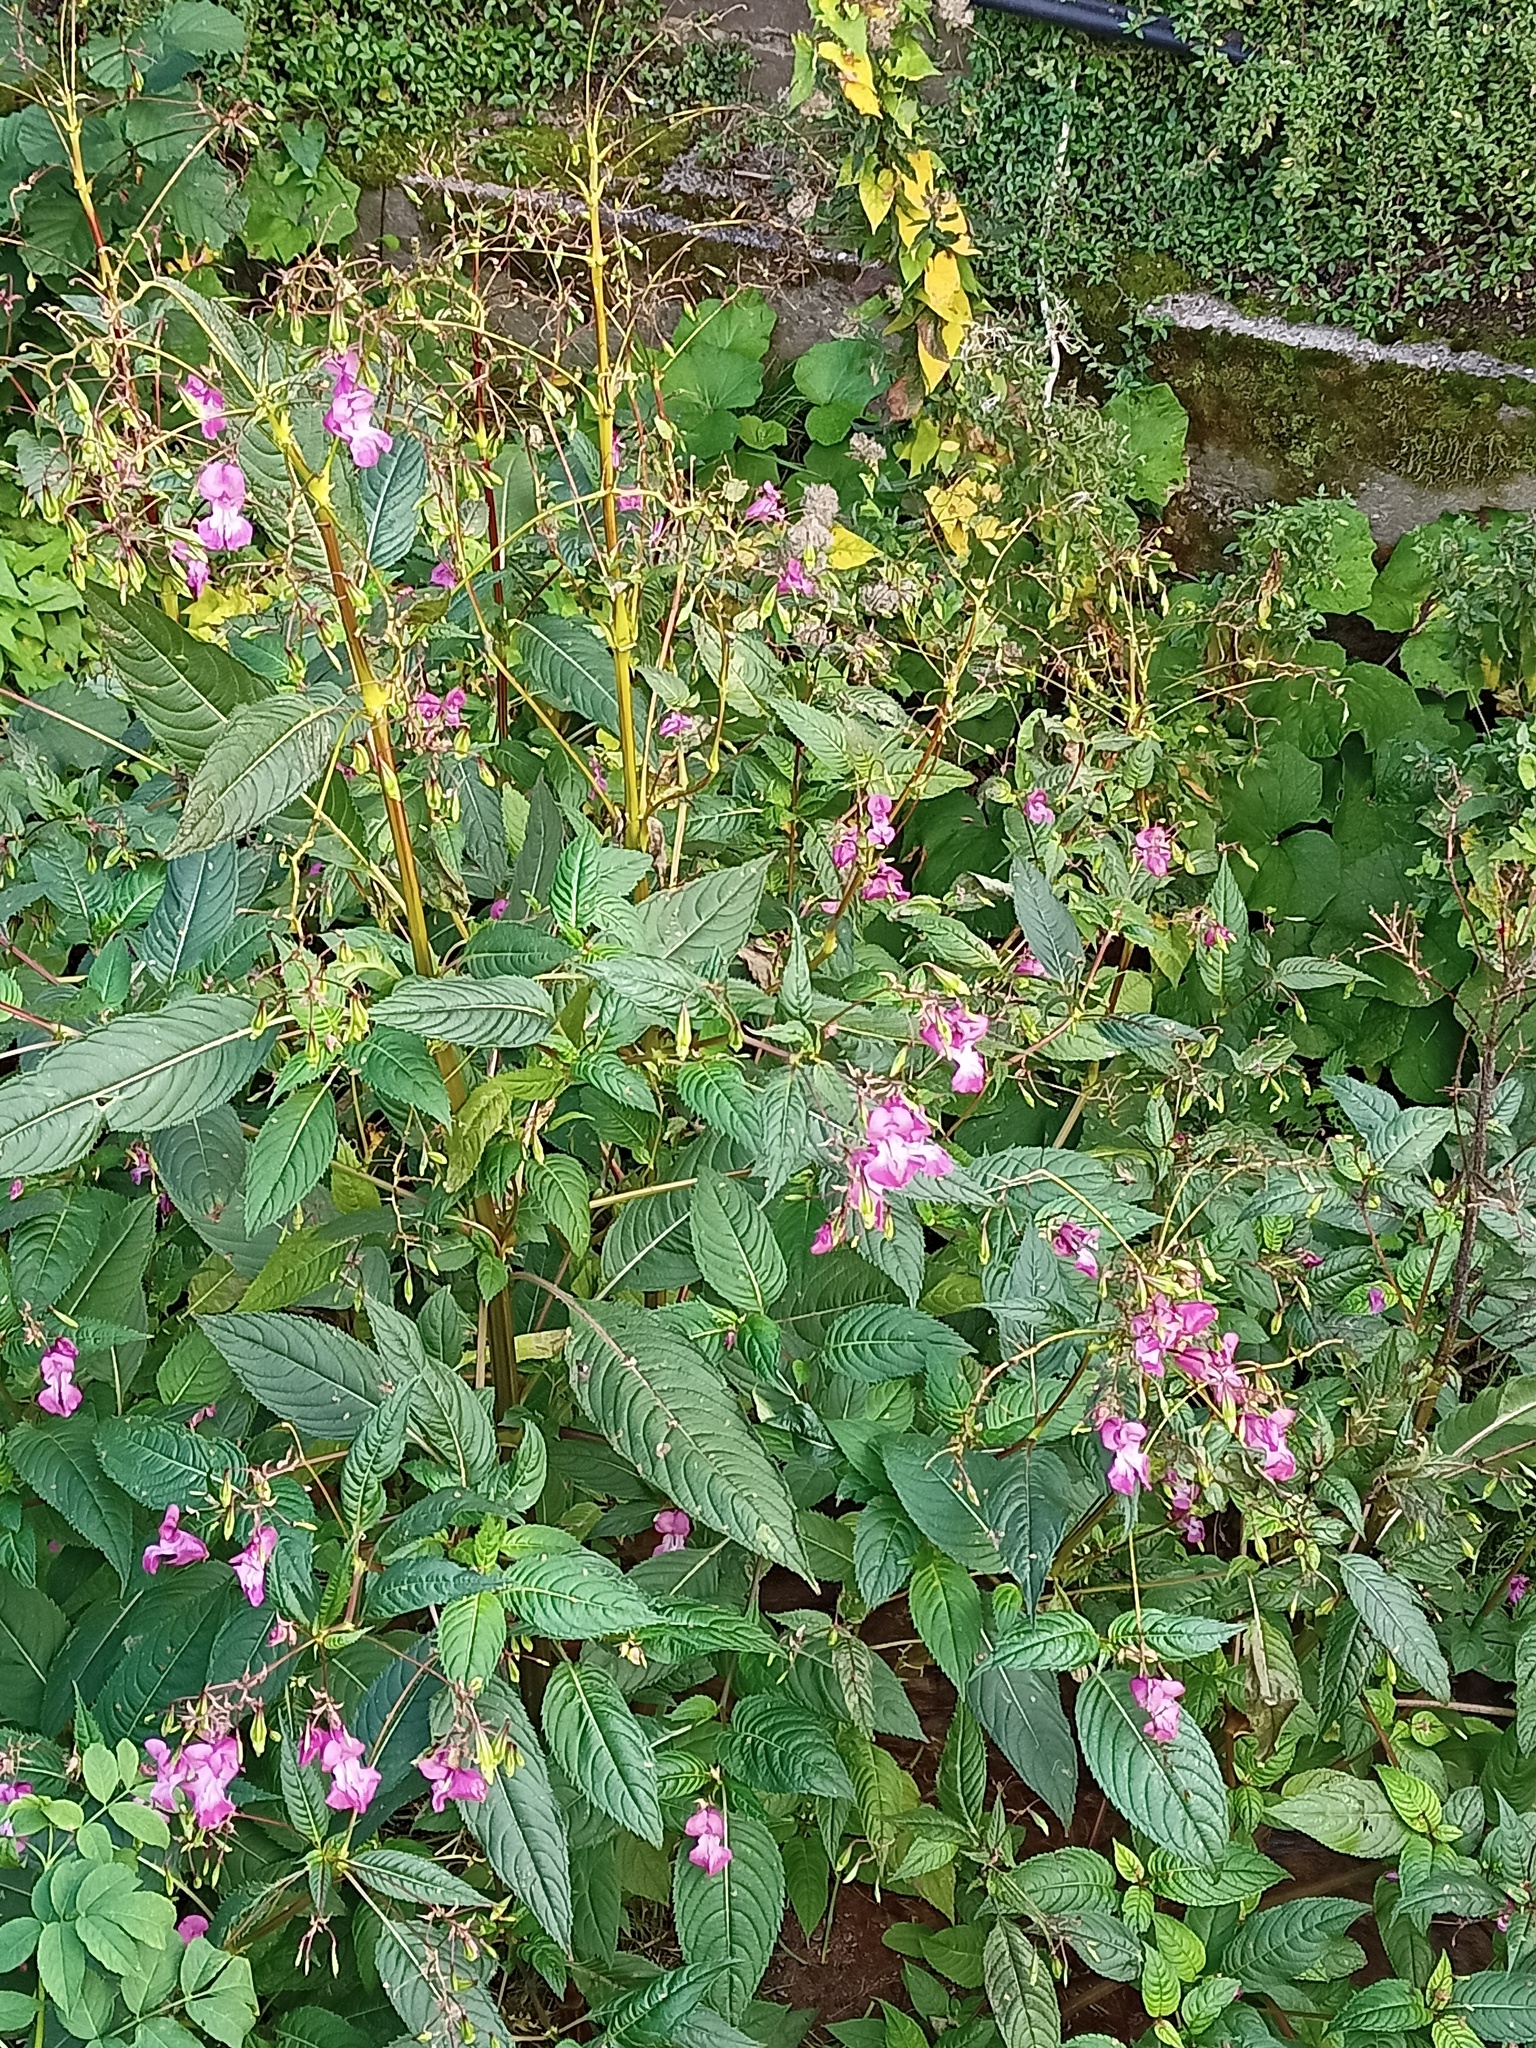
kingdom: Plantae
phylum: Tracheophyta
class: Magnoliopsida
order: Ericales
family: Balsaminaceae
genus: Impatiens
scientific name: Impatiens glandulifera
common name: Himalayan balsam
